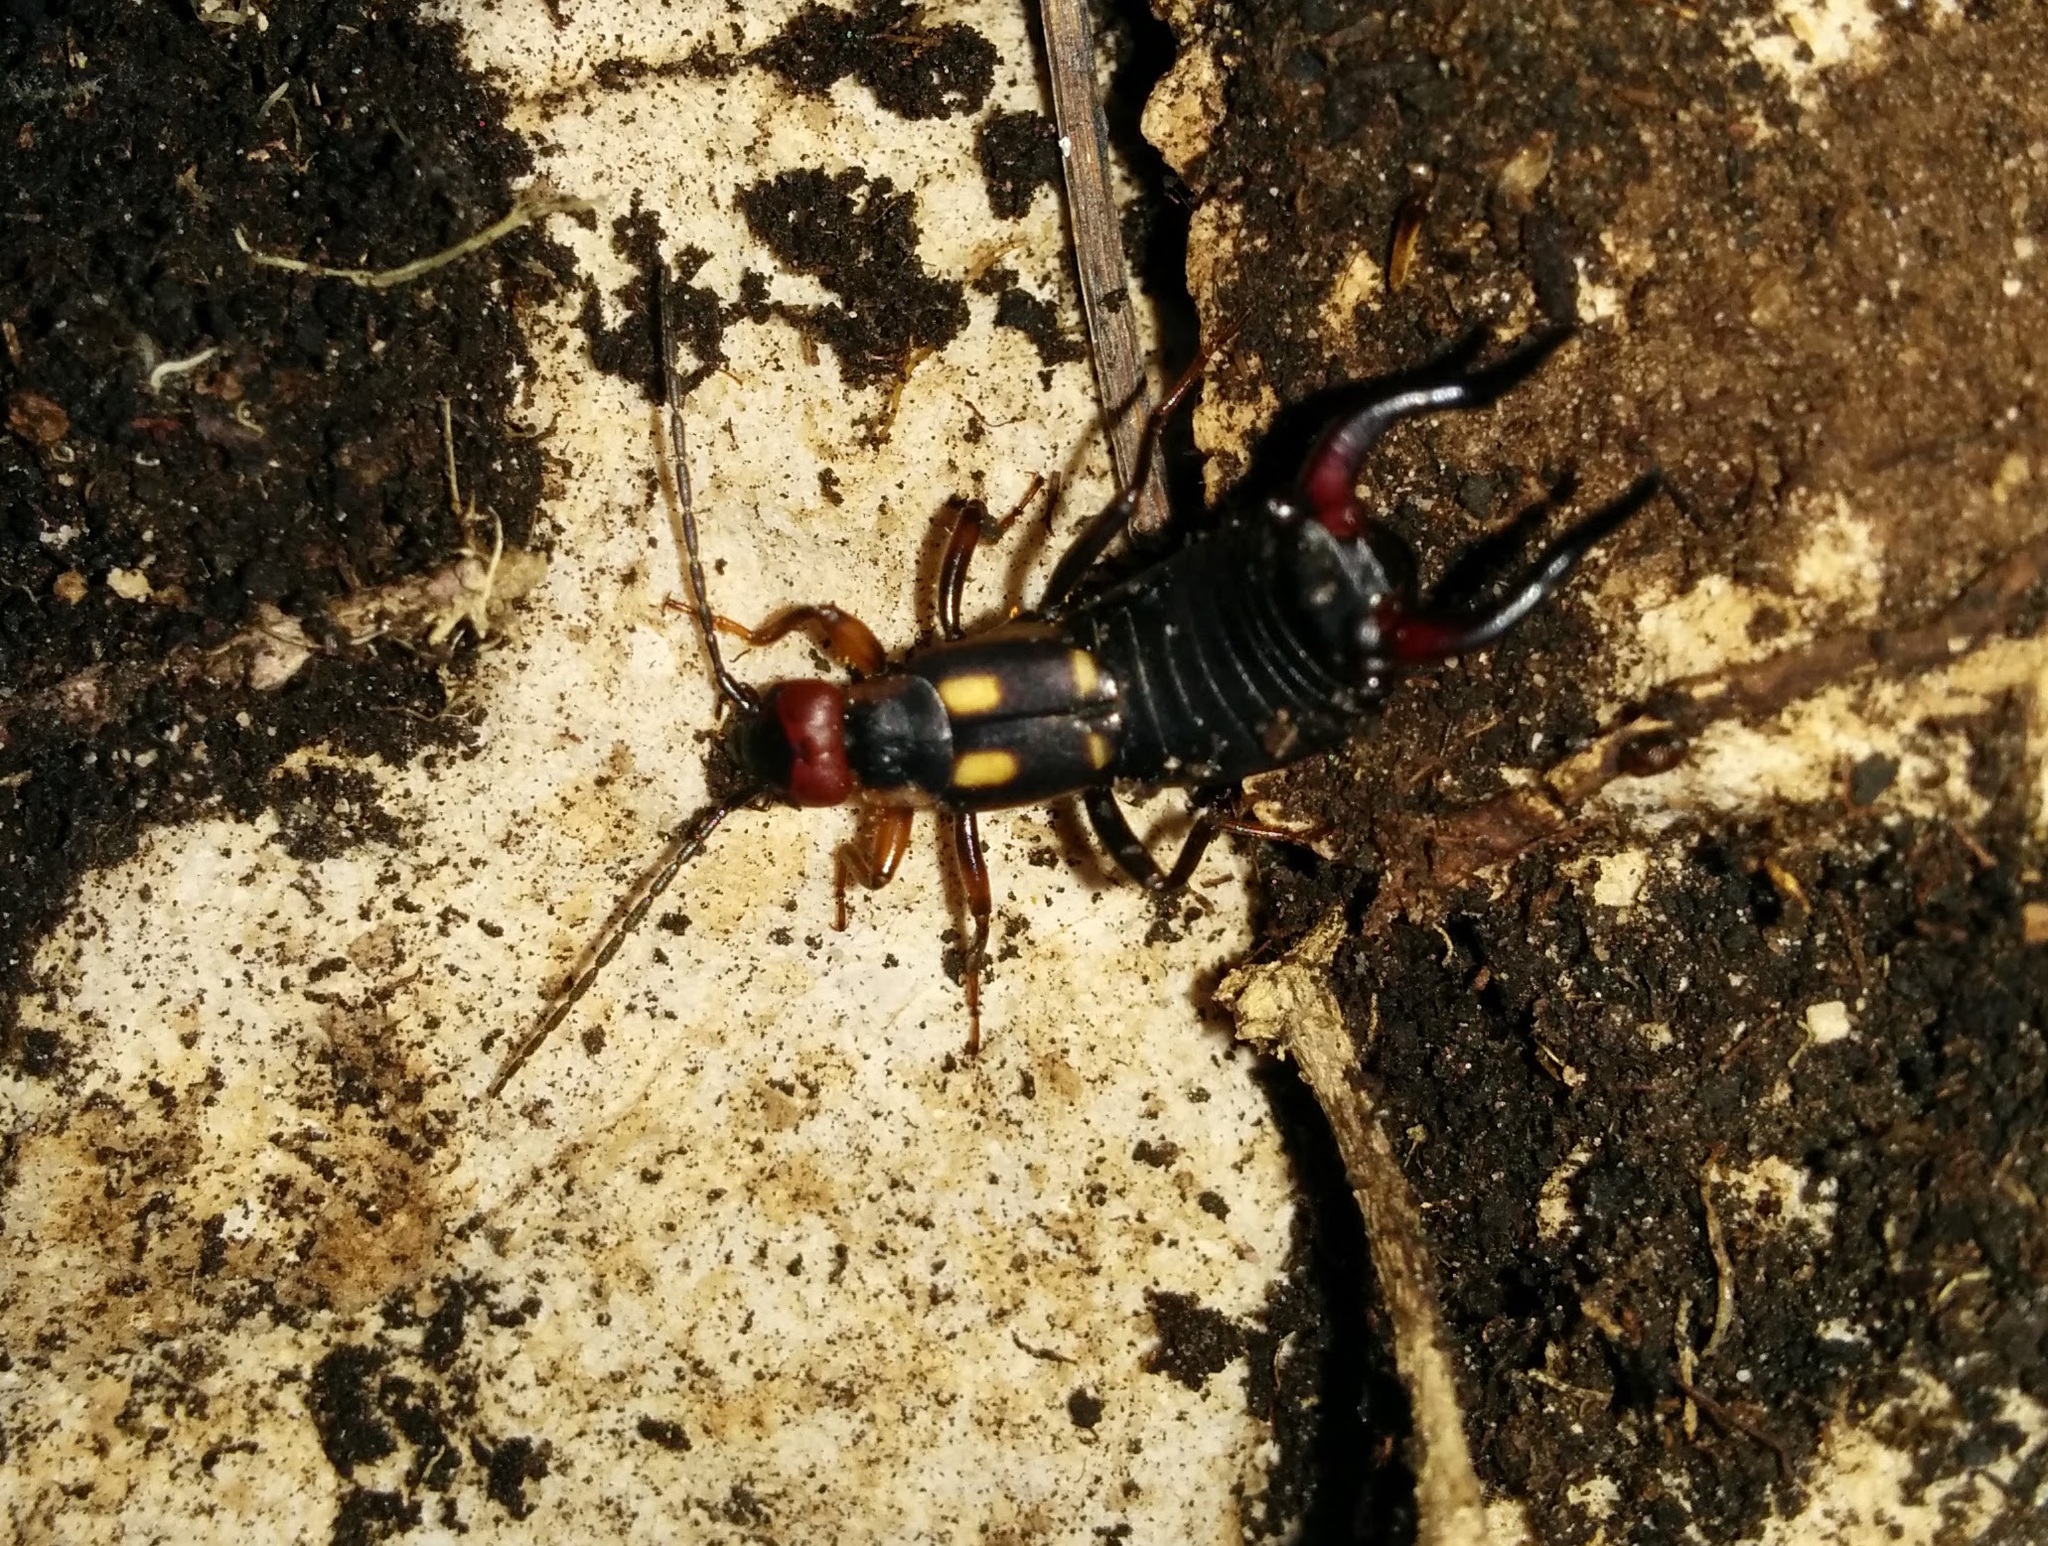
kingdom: Animalia
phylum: Arthropoda
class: Insecta
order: Dermaptera
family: Forficulidae
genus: Anechura
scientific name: Anechura bipunctata
